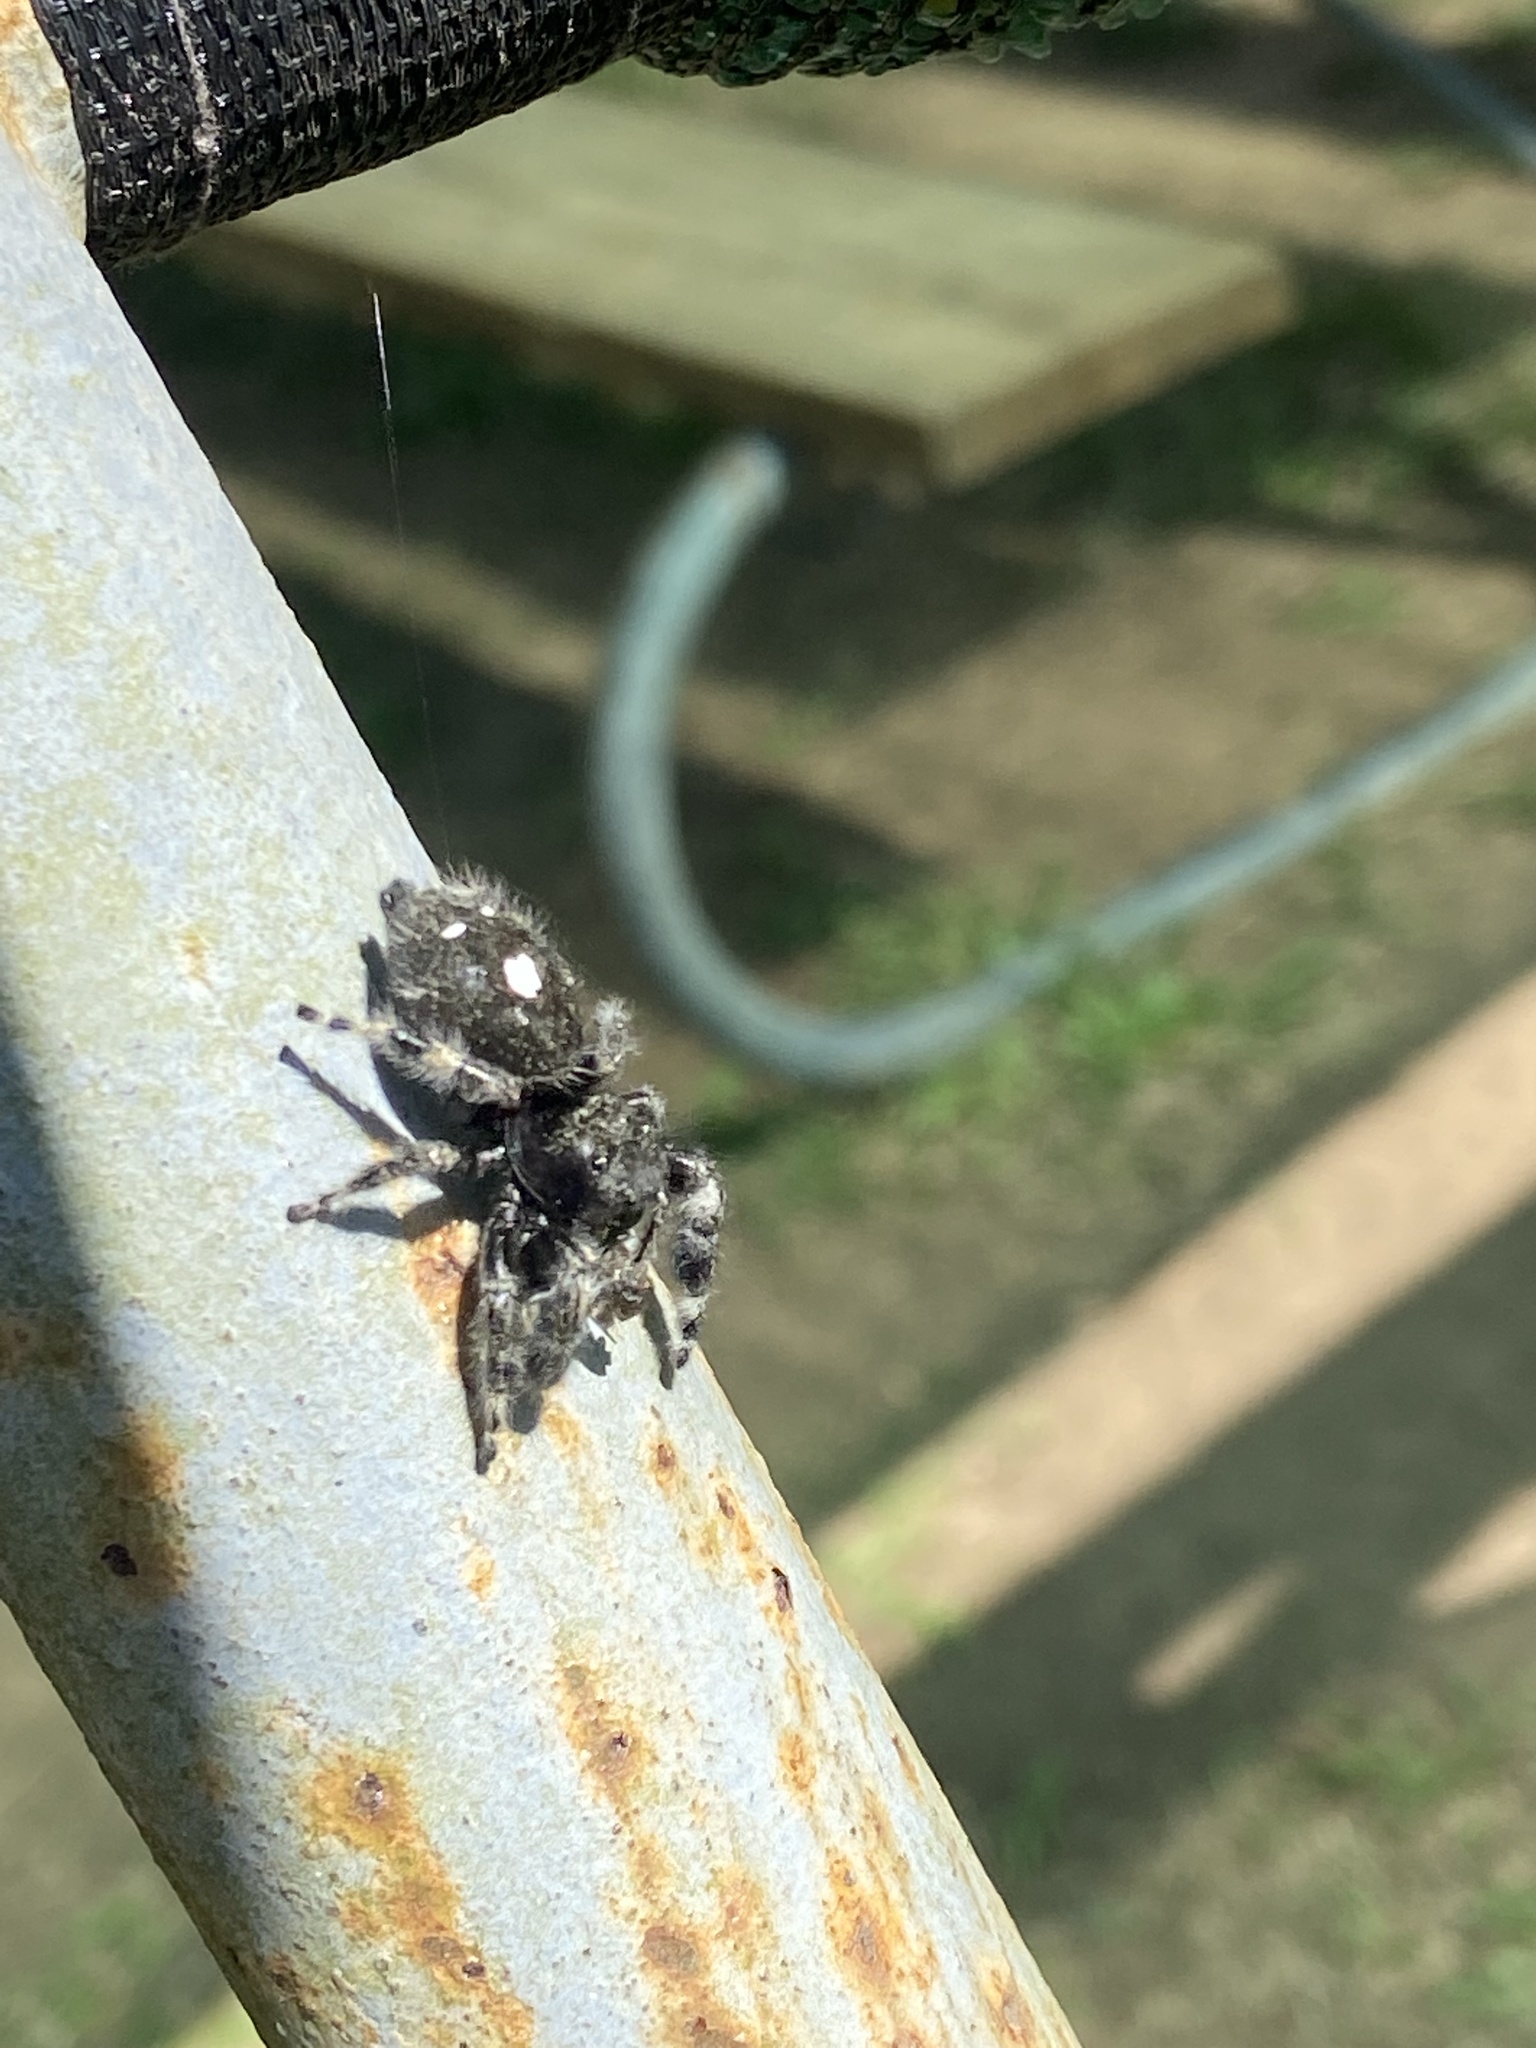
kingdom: Animalia
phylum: Arthropoda
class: Arachnida
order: Araneae
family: Salticidae
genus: Phidippus
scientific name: Phidippus audax
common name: Bold jumper
